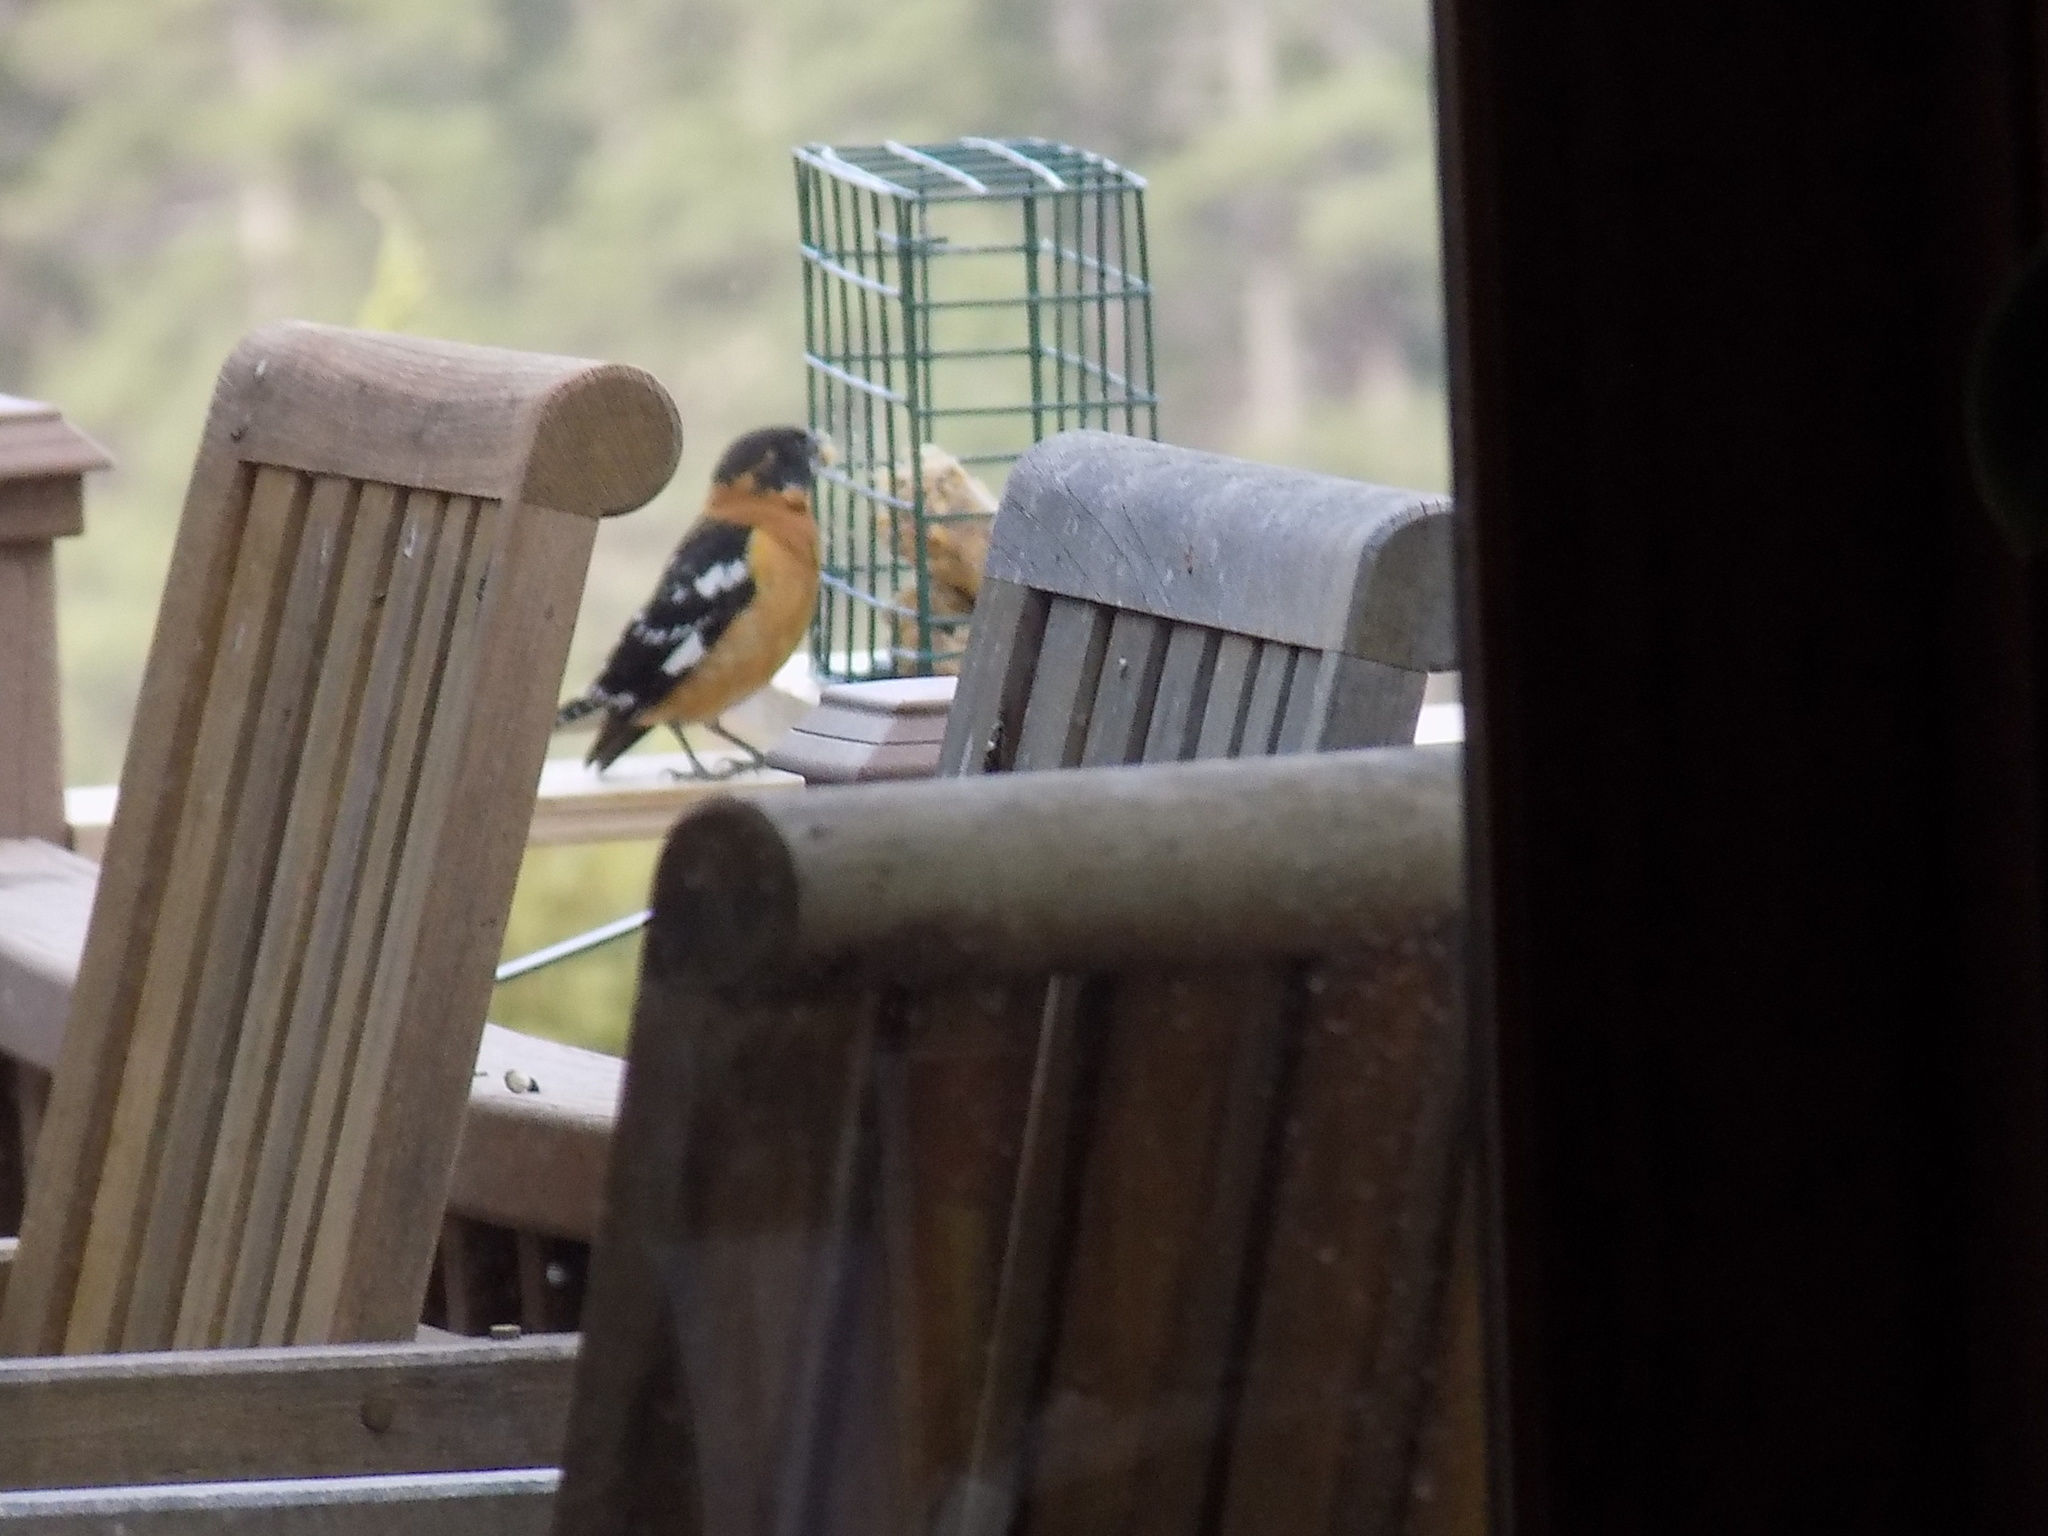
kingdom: Animalia
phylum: Chordata
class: Aves
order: Passeriformes
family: Cardinalidae
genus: Pheucticus
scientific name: Pheucticus melanocephalus
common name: Black-headed grosbeak
